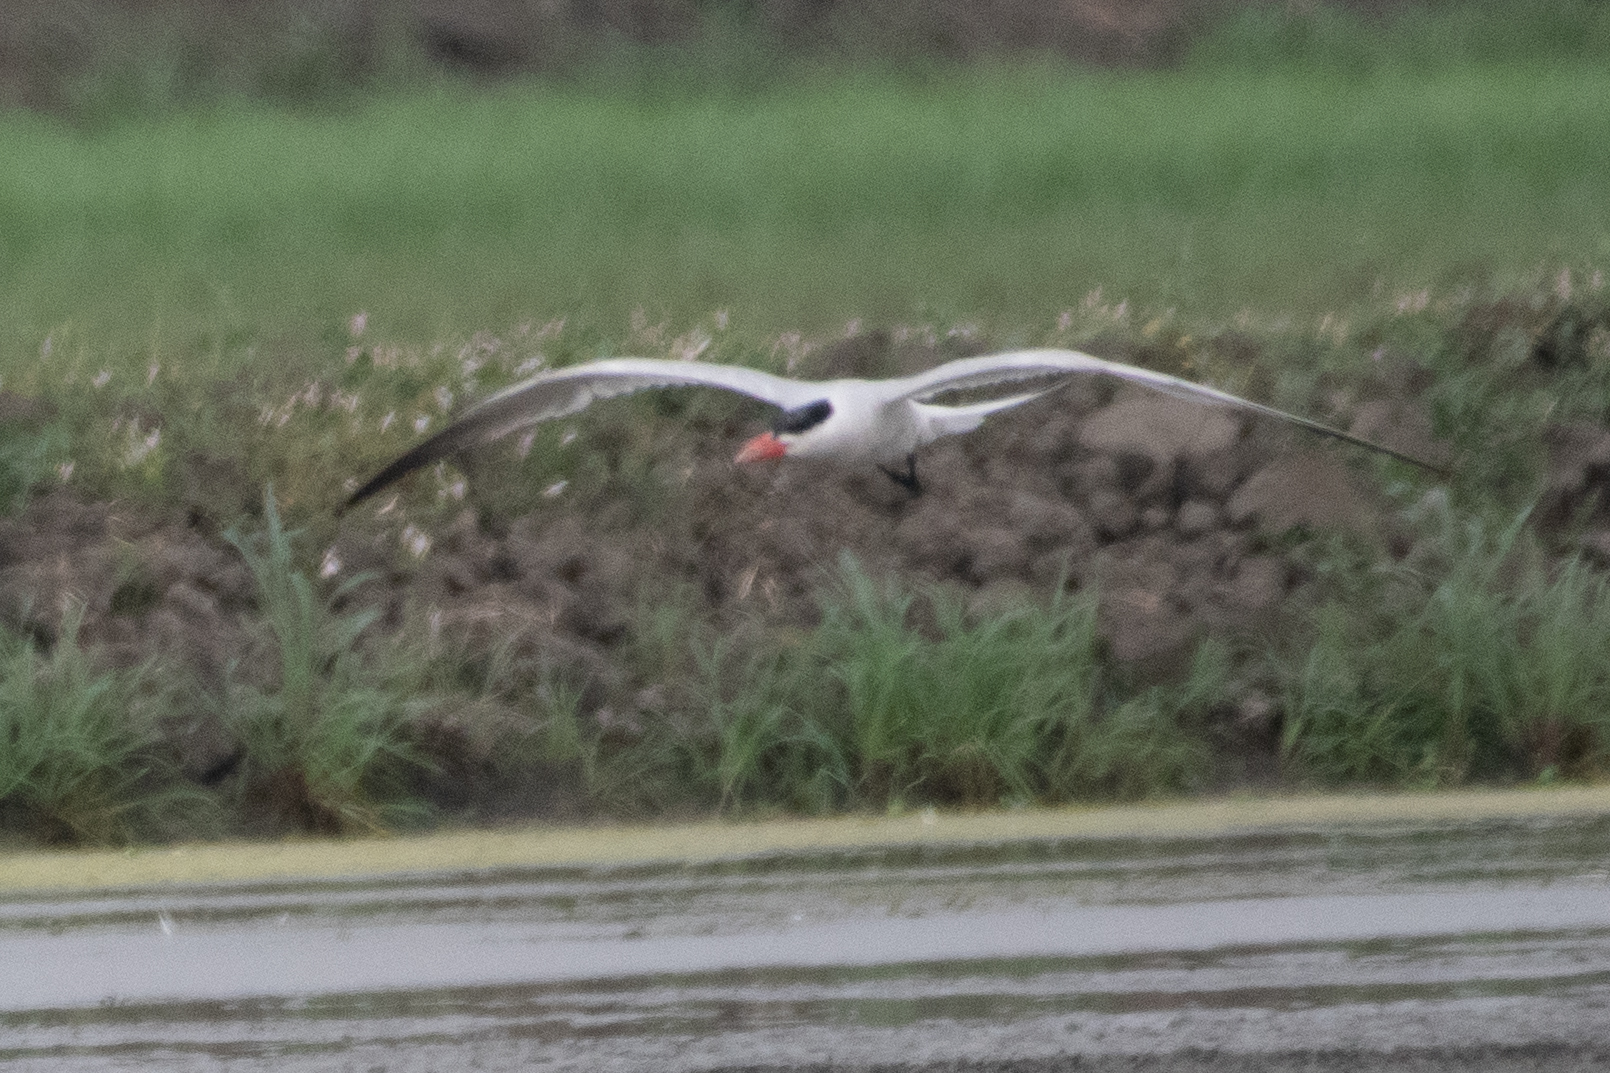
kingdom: Animalia
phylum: Chordata
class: Aves
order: Charadriiformes
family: Laridae
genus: Hydroprogne
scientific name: Hydroprogne caspia
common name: Caspian tern
